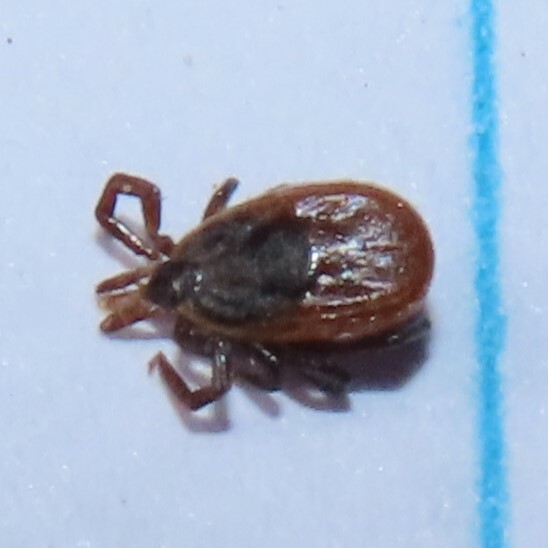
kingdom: Animalia
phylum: Arthropoda
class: Arachnida
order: Ixodida
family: Ixodidae
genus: Ixodes
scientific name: Ixodes scapularis
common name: Black legged tick
